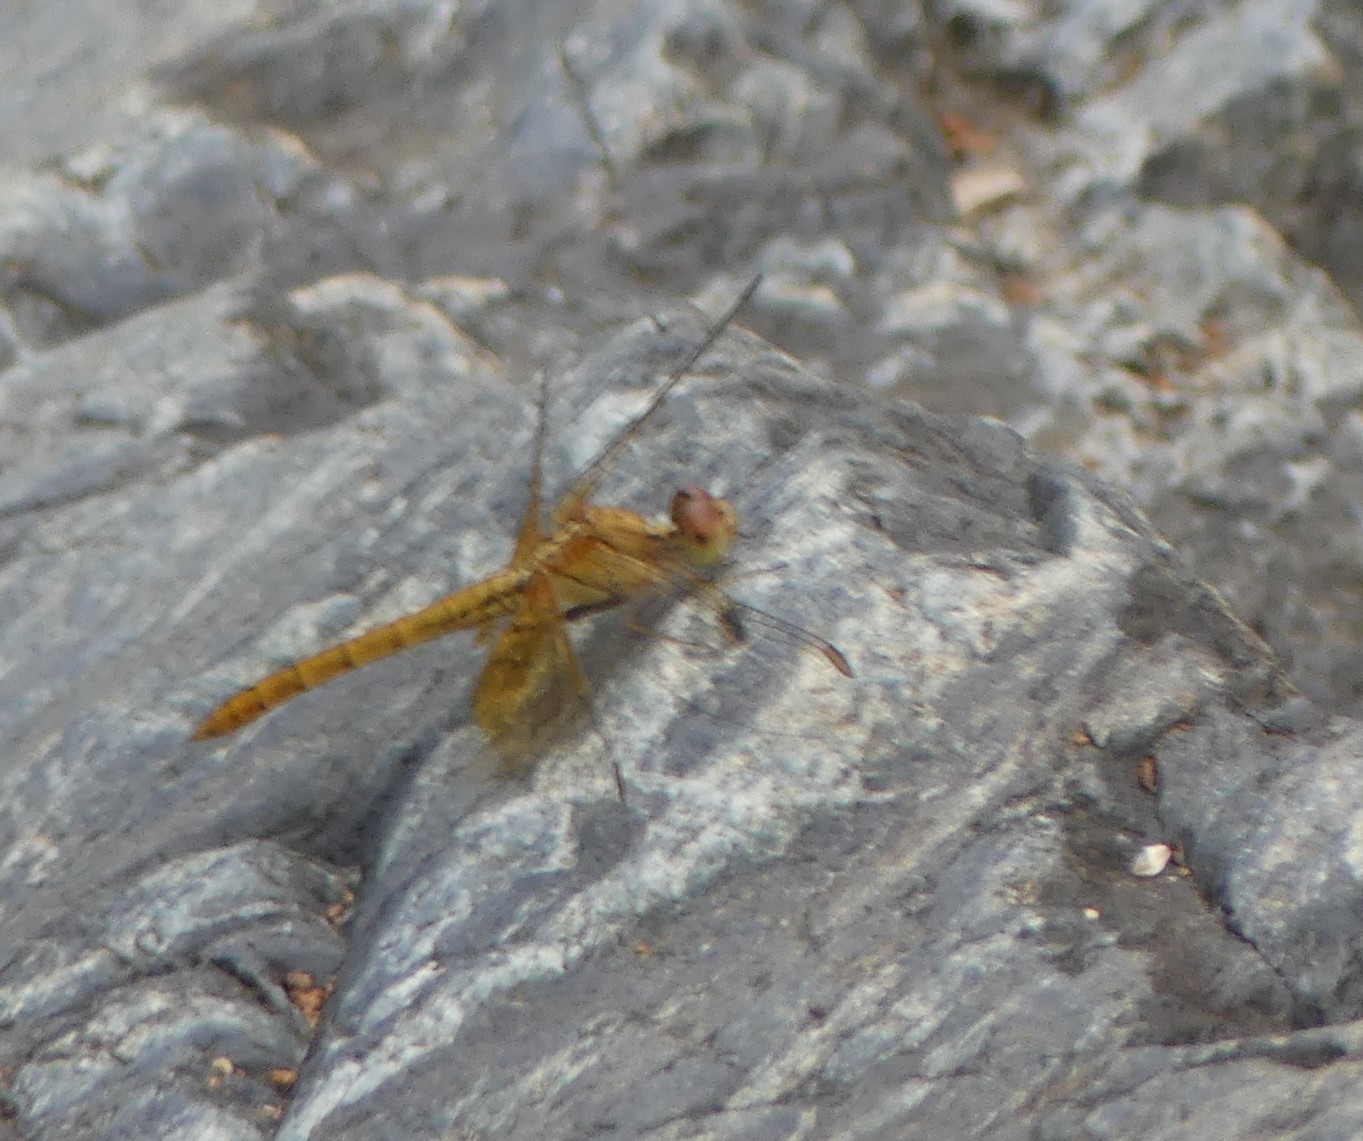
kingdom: Animalia
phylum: Arthropoda
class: Insecta
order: Odonata
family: Libellulidae
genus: Diplacodes
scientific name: Diplacodes haematodes
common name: Scarlet percher
